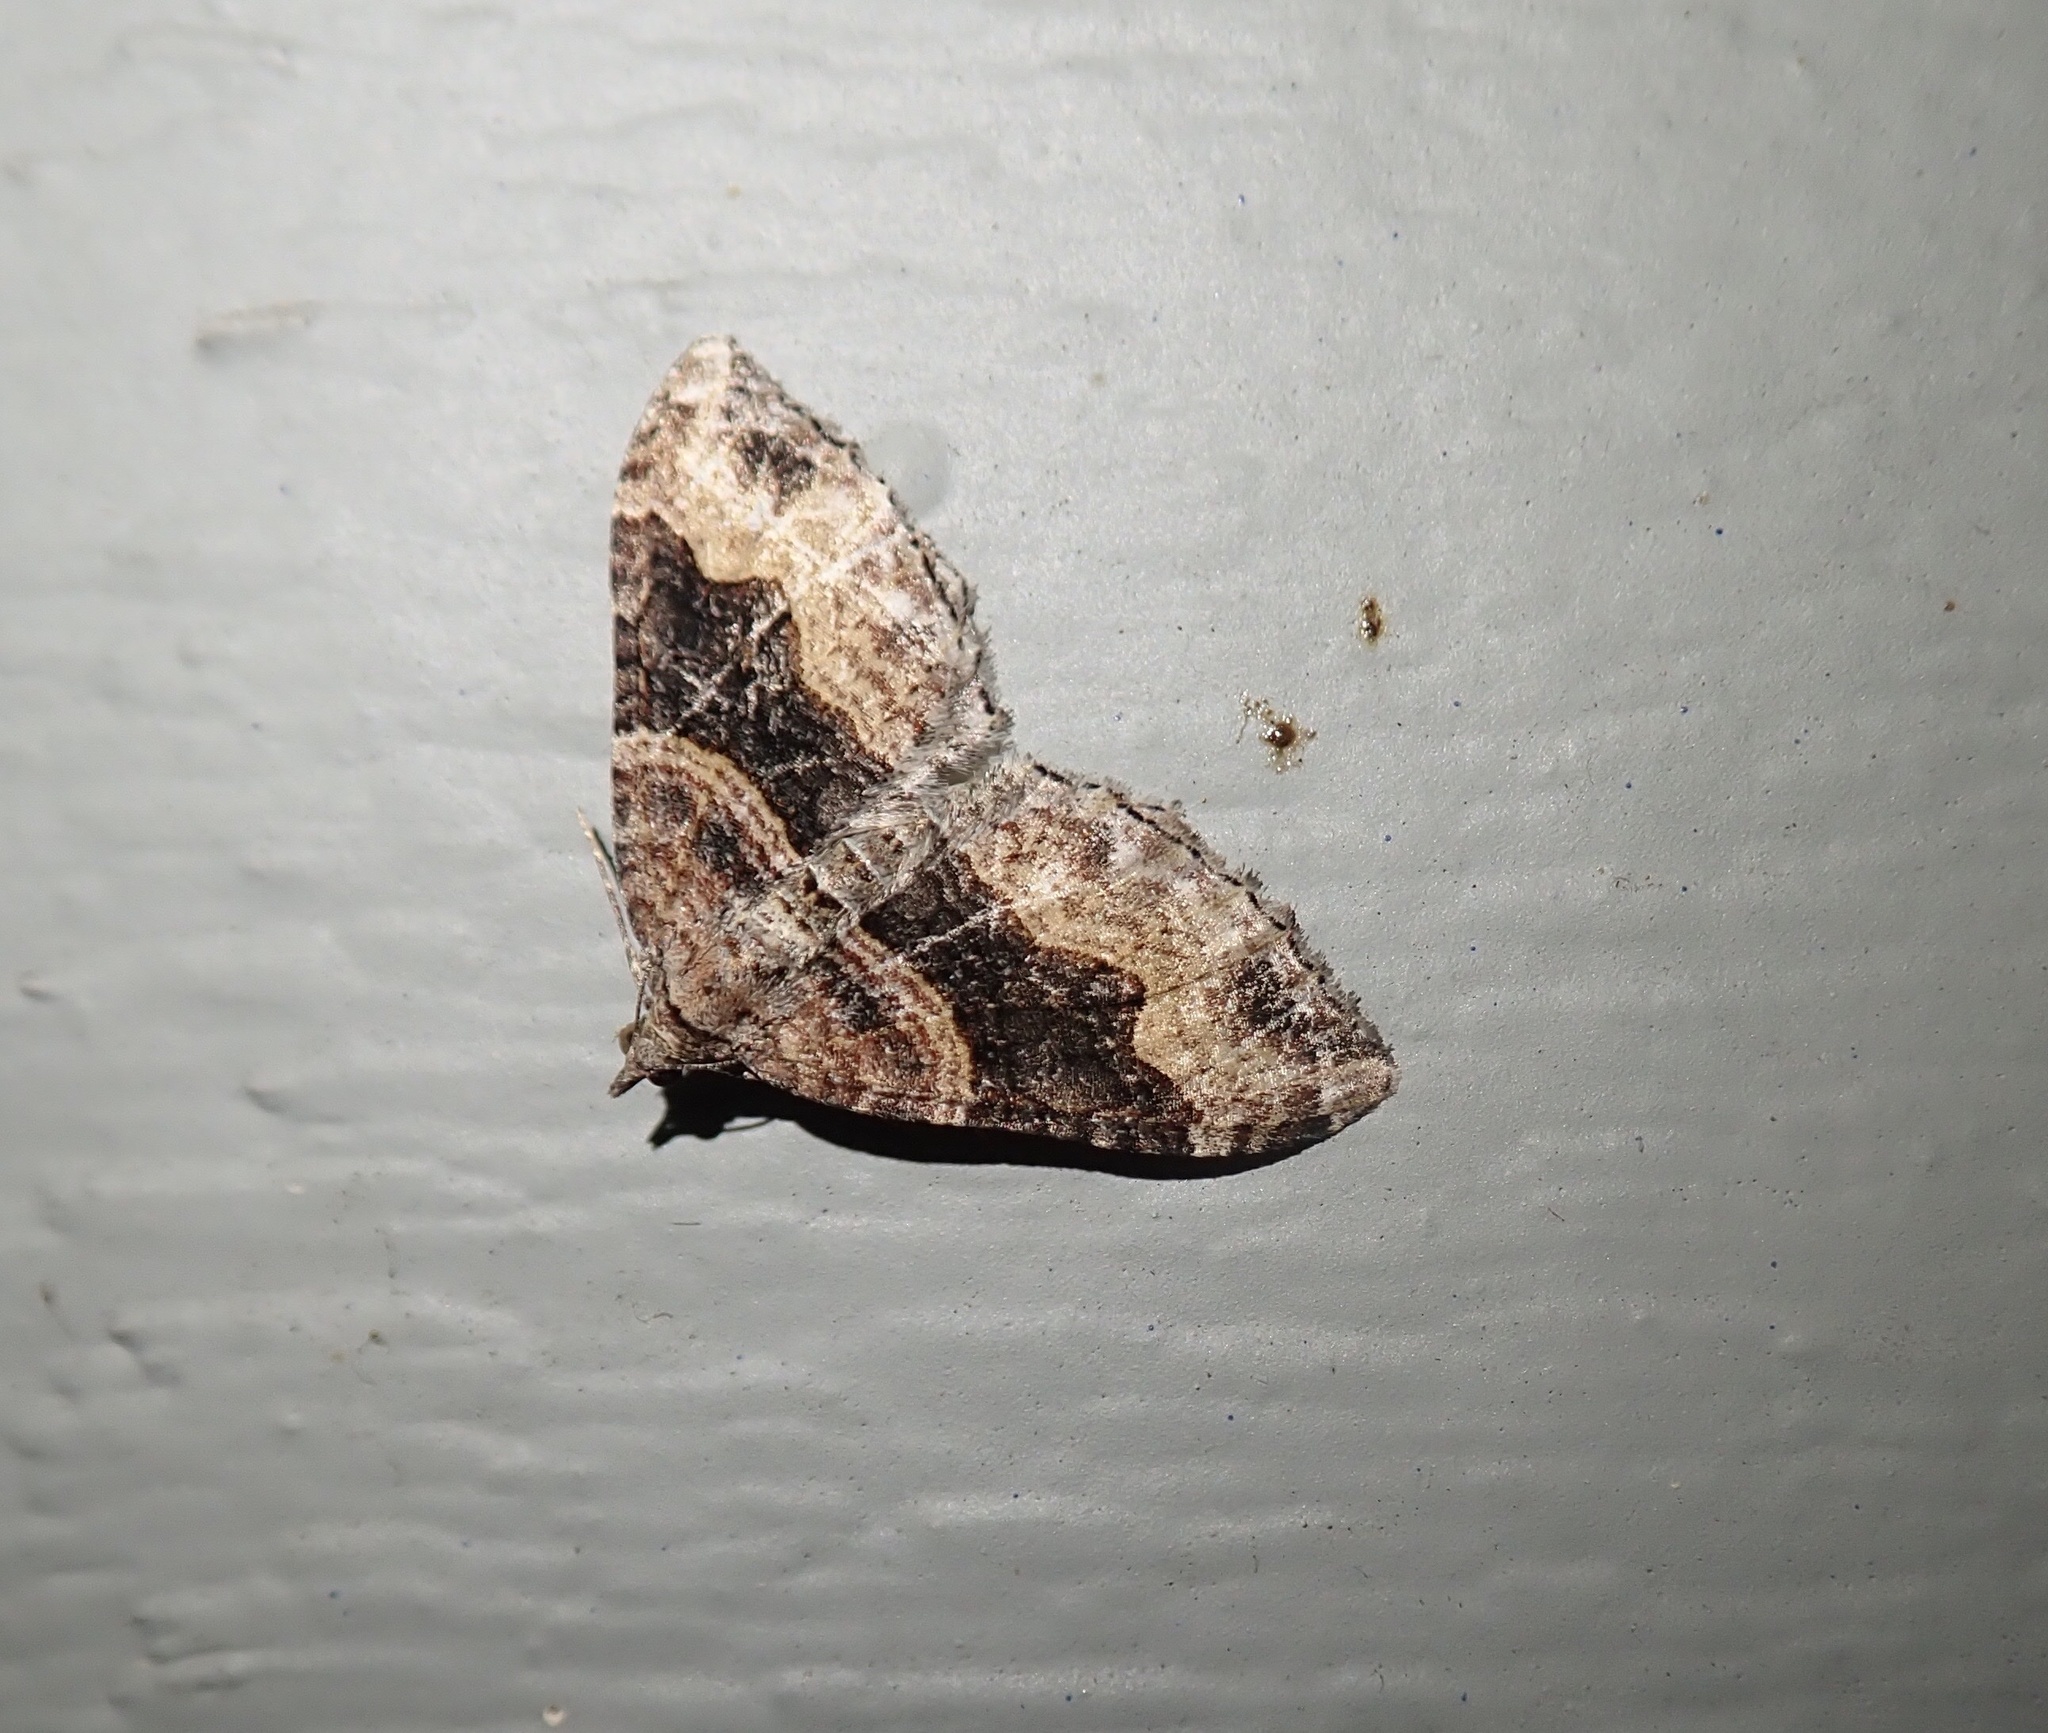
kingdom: Animalia
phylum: Arthropoda
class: Insecta
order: Lepidoptera
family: Geometridae
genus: Xanthorhoe
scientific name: Xanthorhoe defensaria
